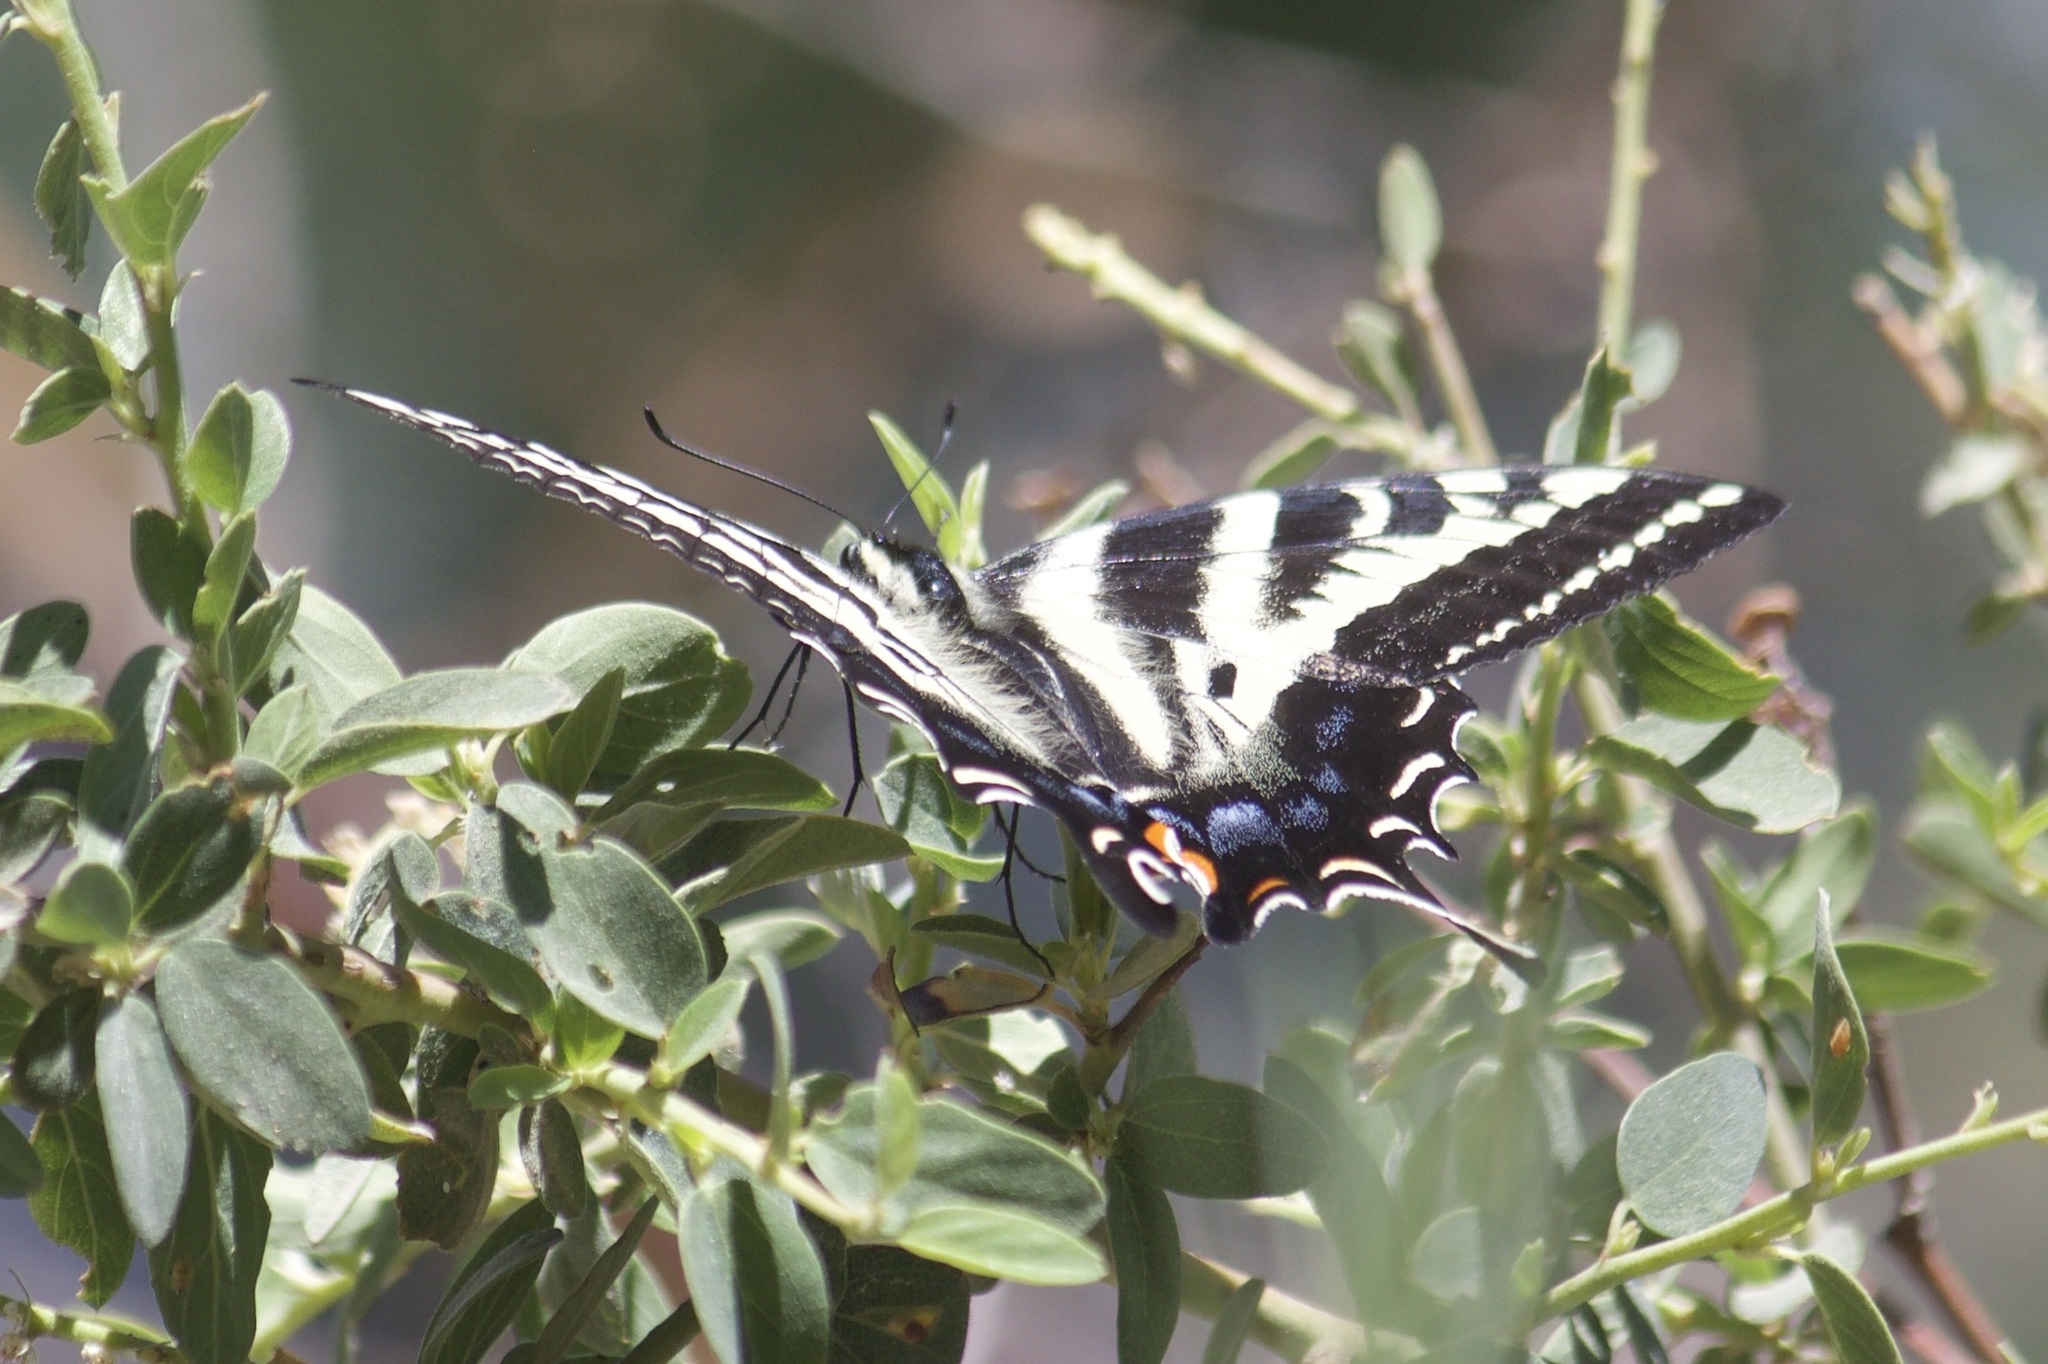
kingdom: Animalia
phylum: Arthropoda
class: Insecta
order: Lepidoptera
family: Papilionidae
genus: Papilio
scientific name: Papilio eurymedon
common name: Pale tiger swallowtail
